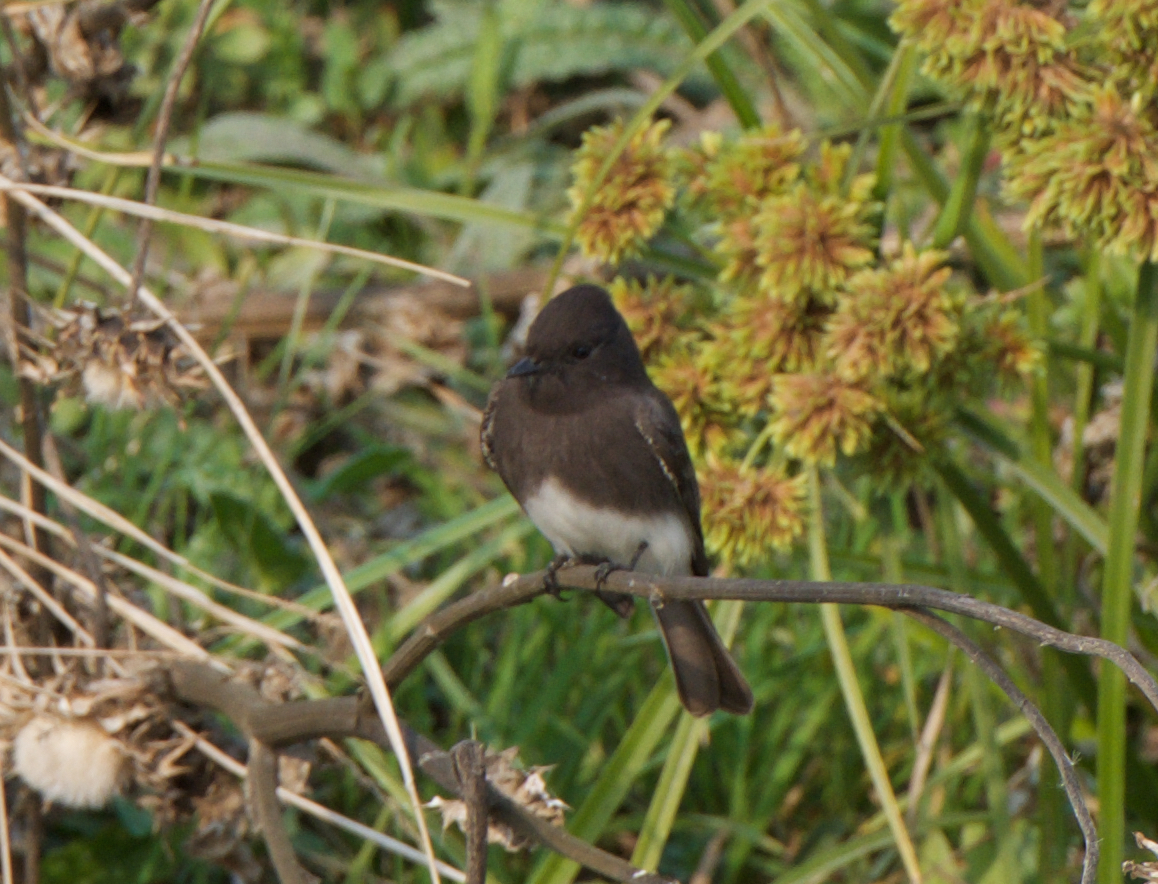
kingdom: Animalia
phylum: Chordata
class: Aves
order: Passeriformes
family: Tyrannidae
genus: Sayornis
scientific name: Sayornis nigricans
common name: Black phoebe
